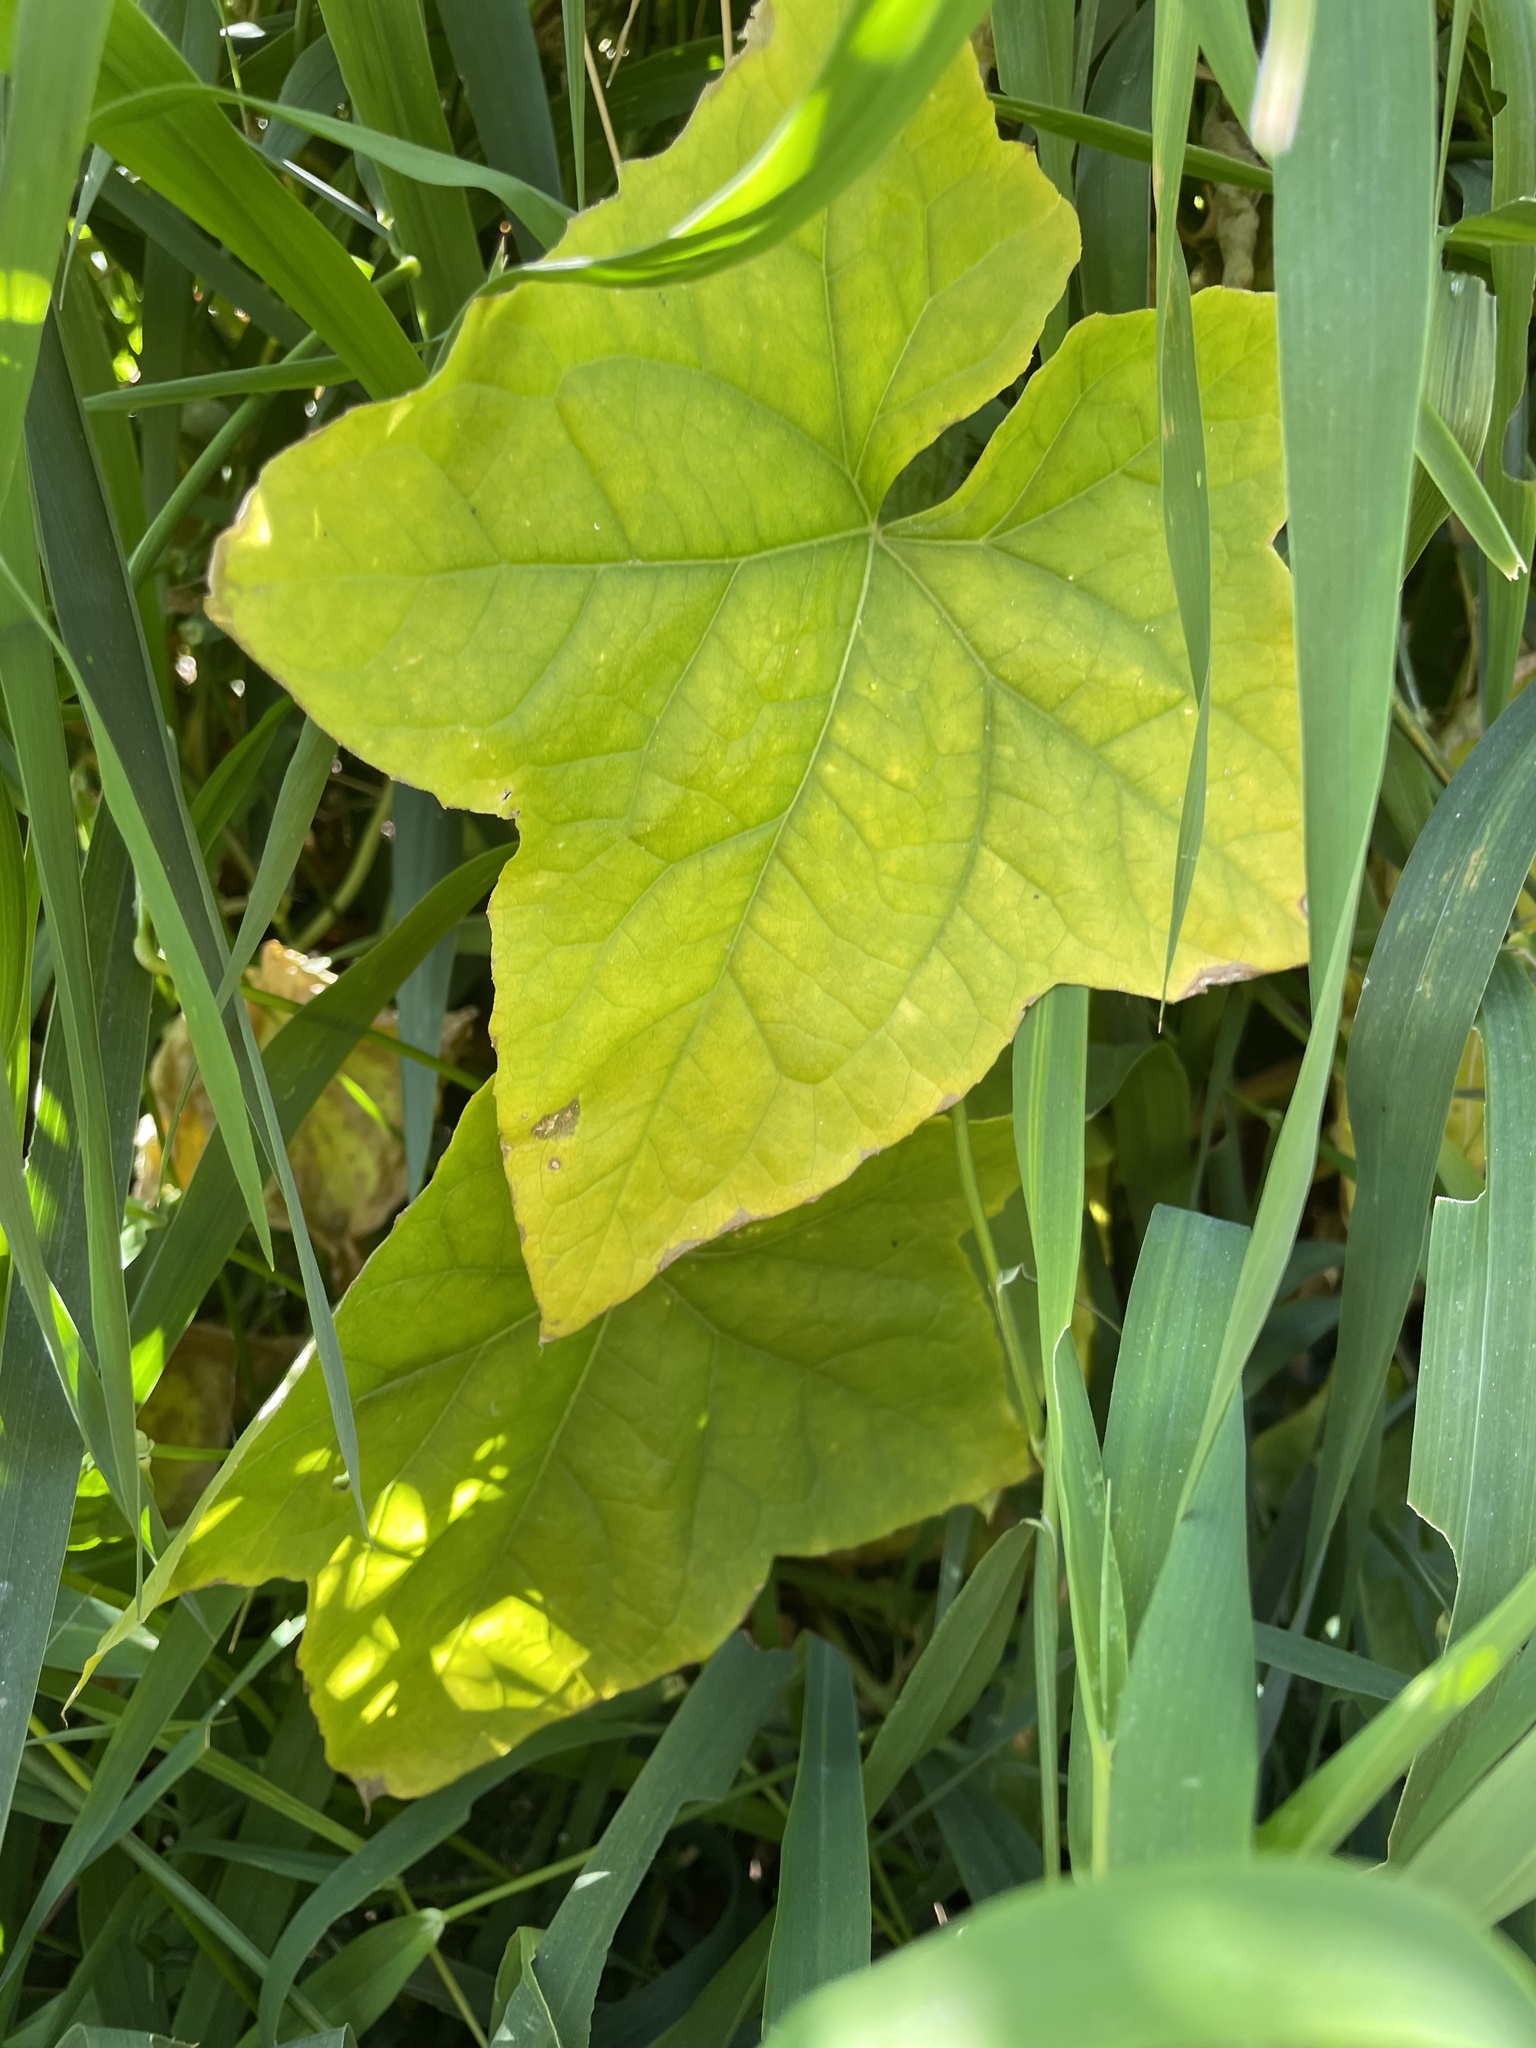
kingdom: Plantae
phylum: Tracheophyta
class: Magnoliopsida
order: Cucurbitales
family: Cucurbitaceae
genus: Echinocystis
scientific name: Echinocystis lobata
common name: Wild cucumber
